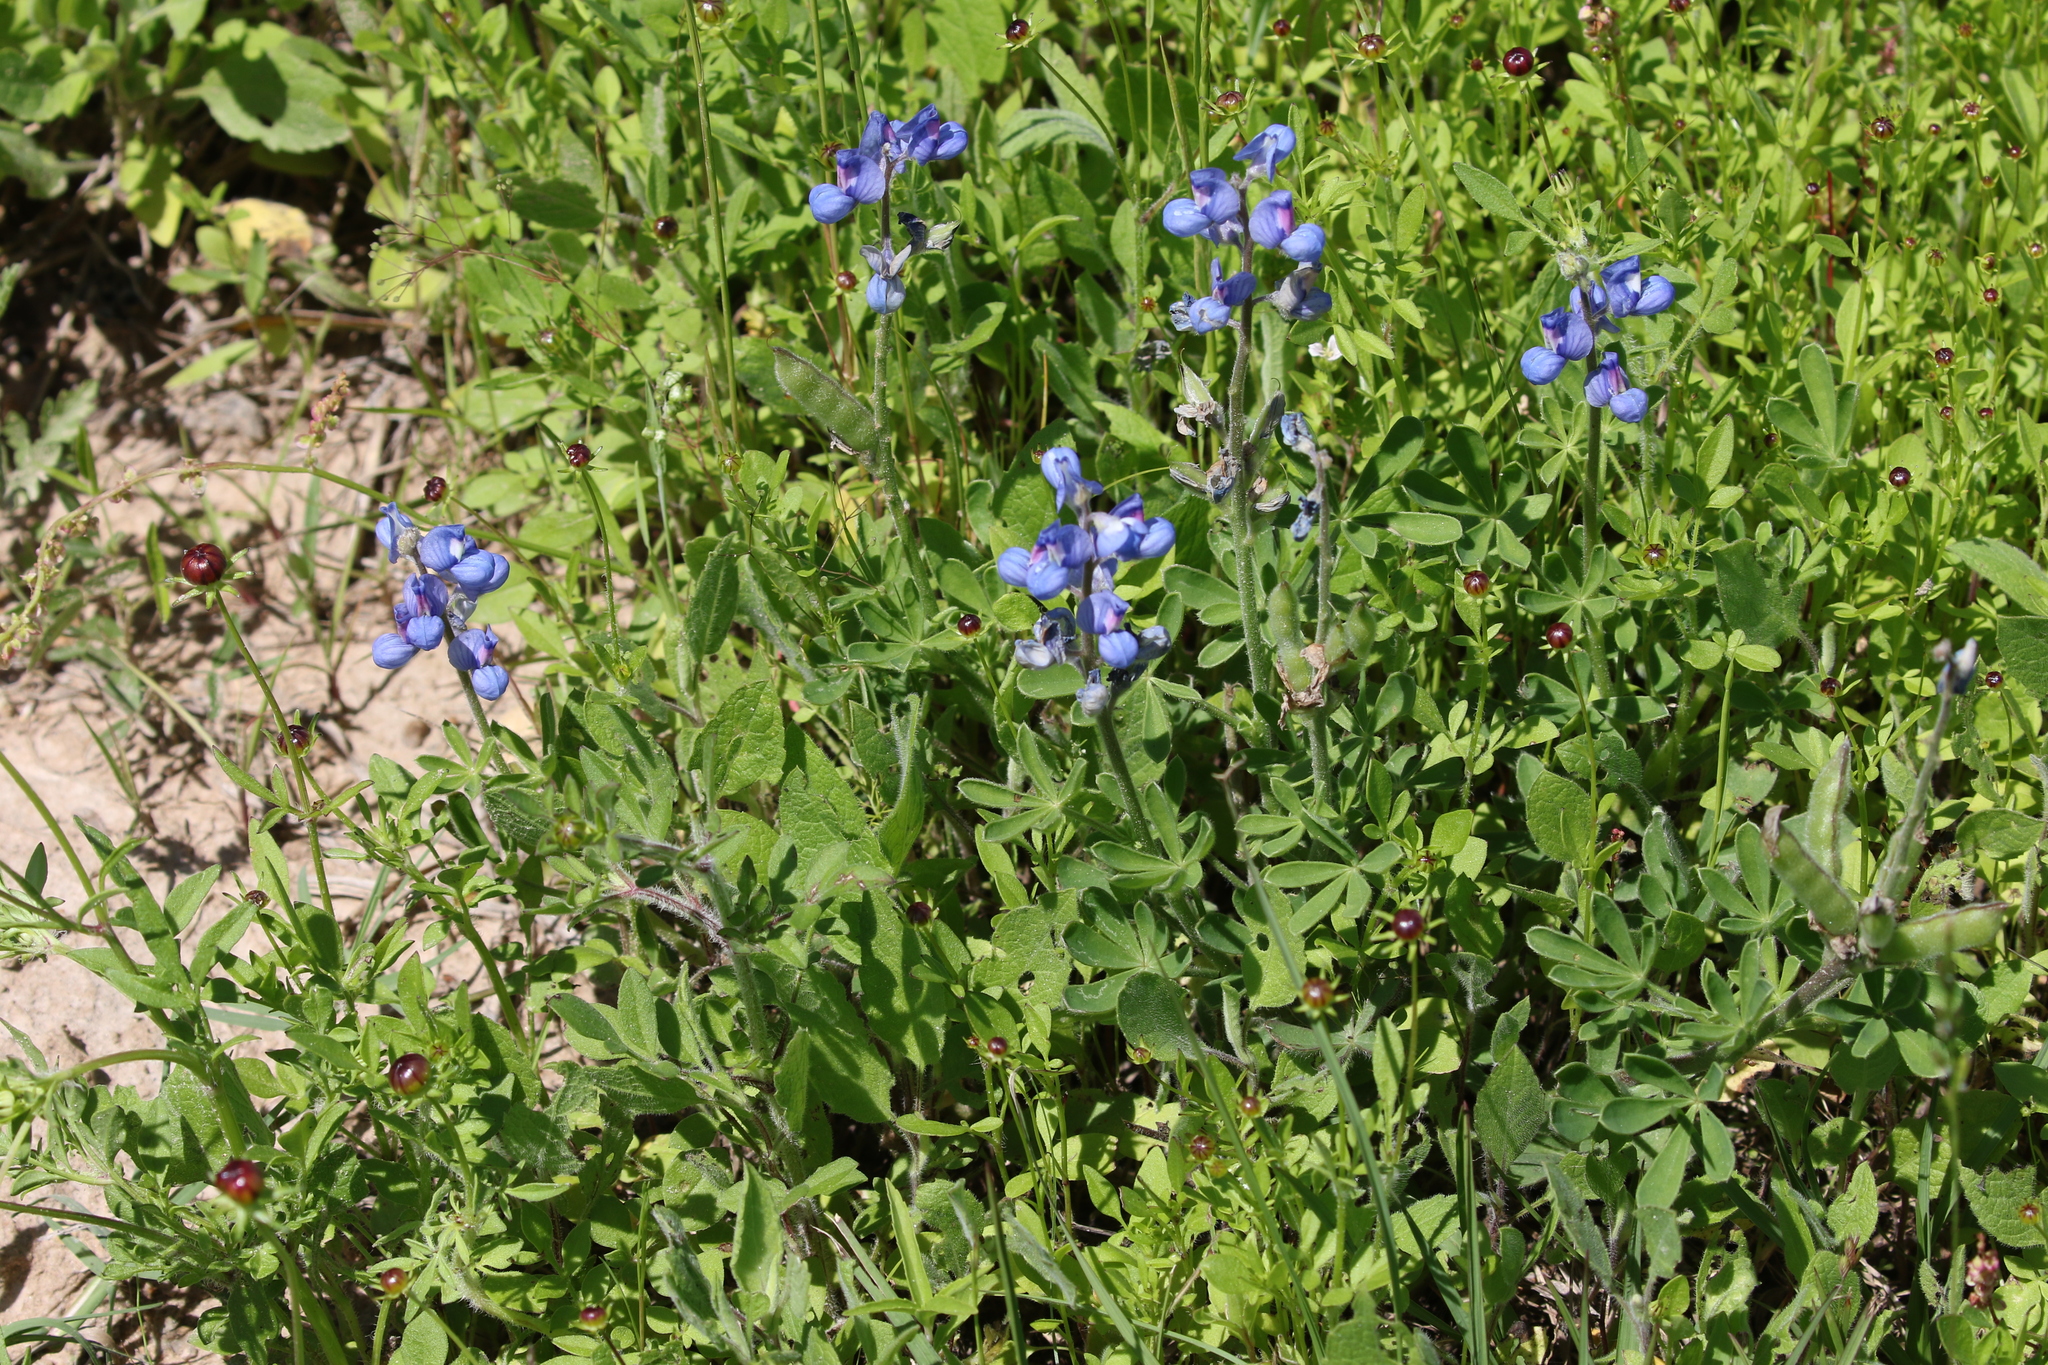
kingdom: Plantae
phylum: Tracheophyta
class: Magnoliopsida
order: Fabales
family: Fabaceae
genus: Lupinus
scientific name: Lupinus subcarnosus
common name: Texas bluebonnet
